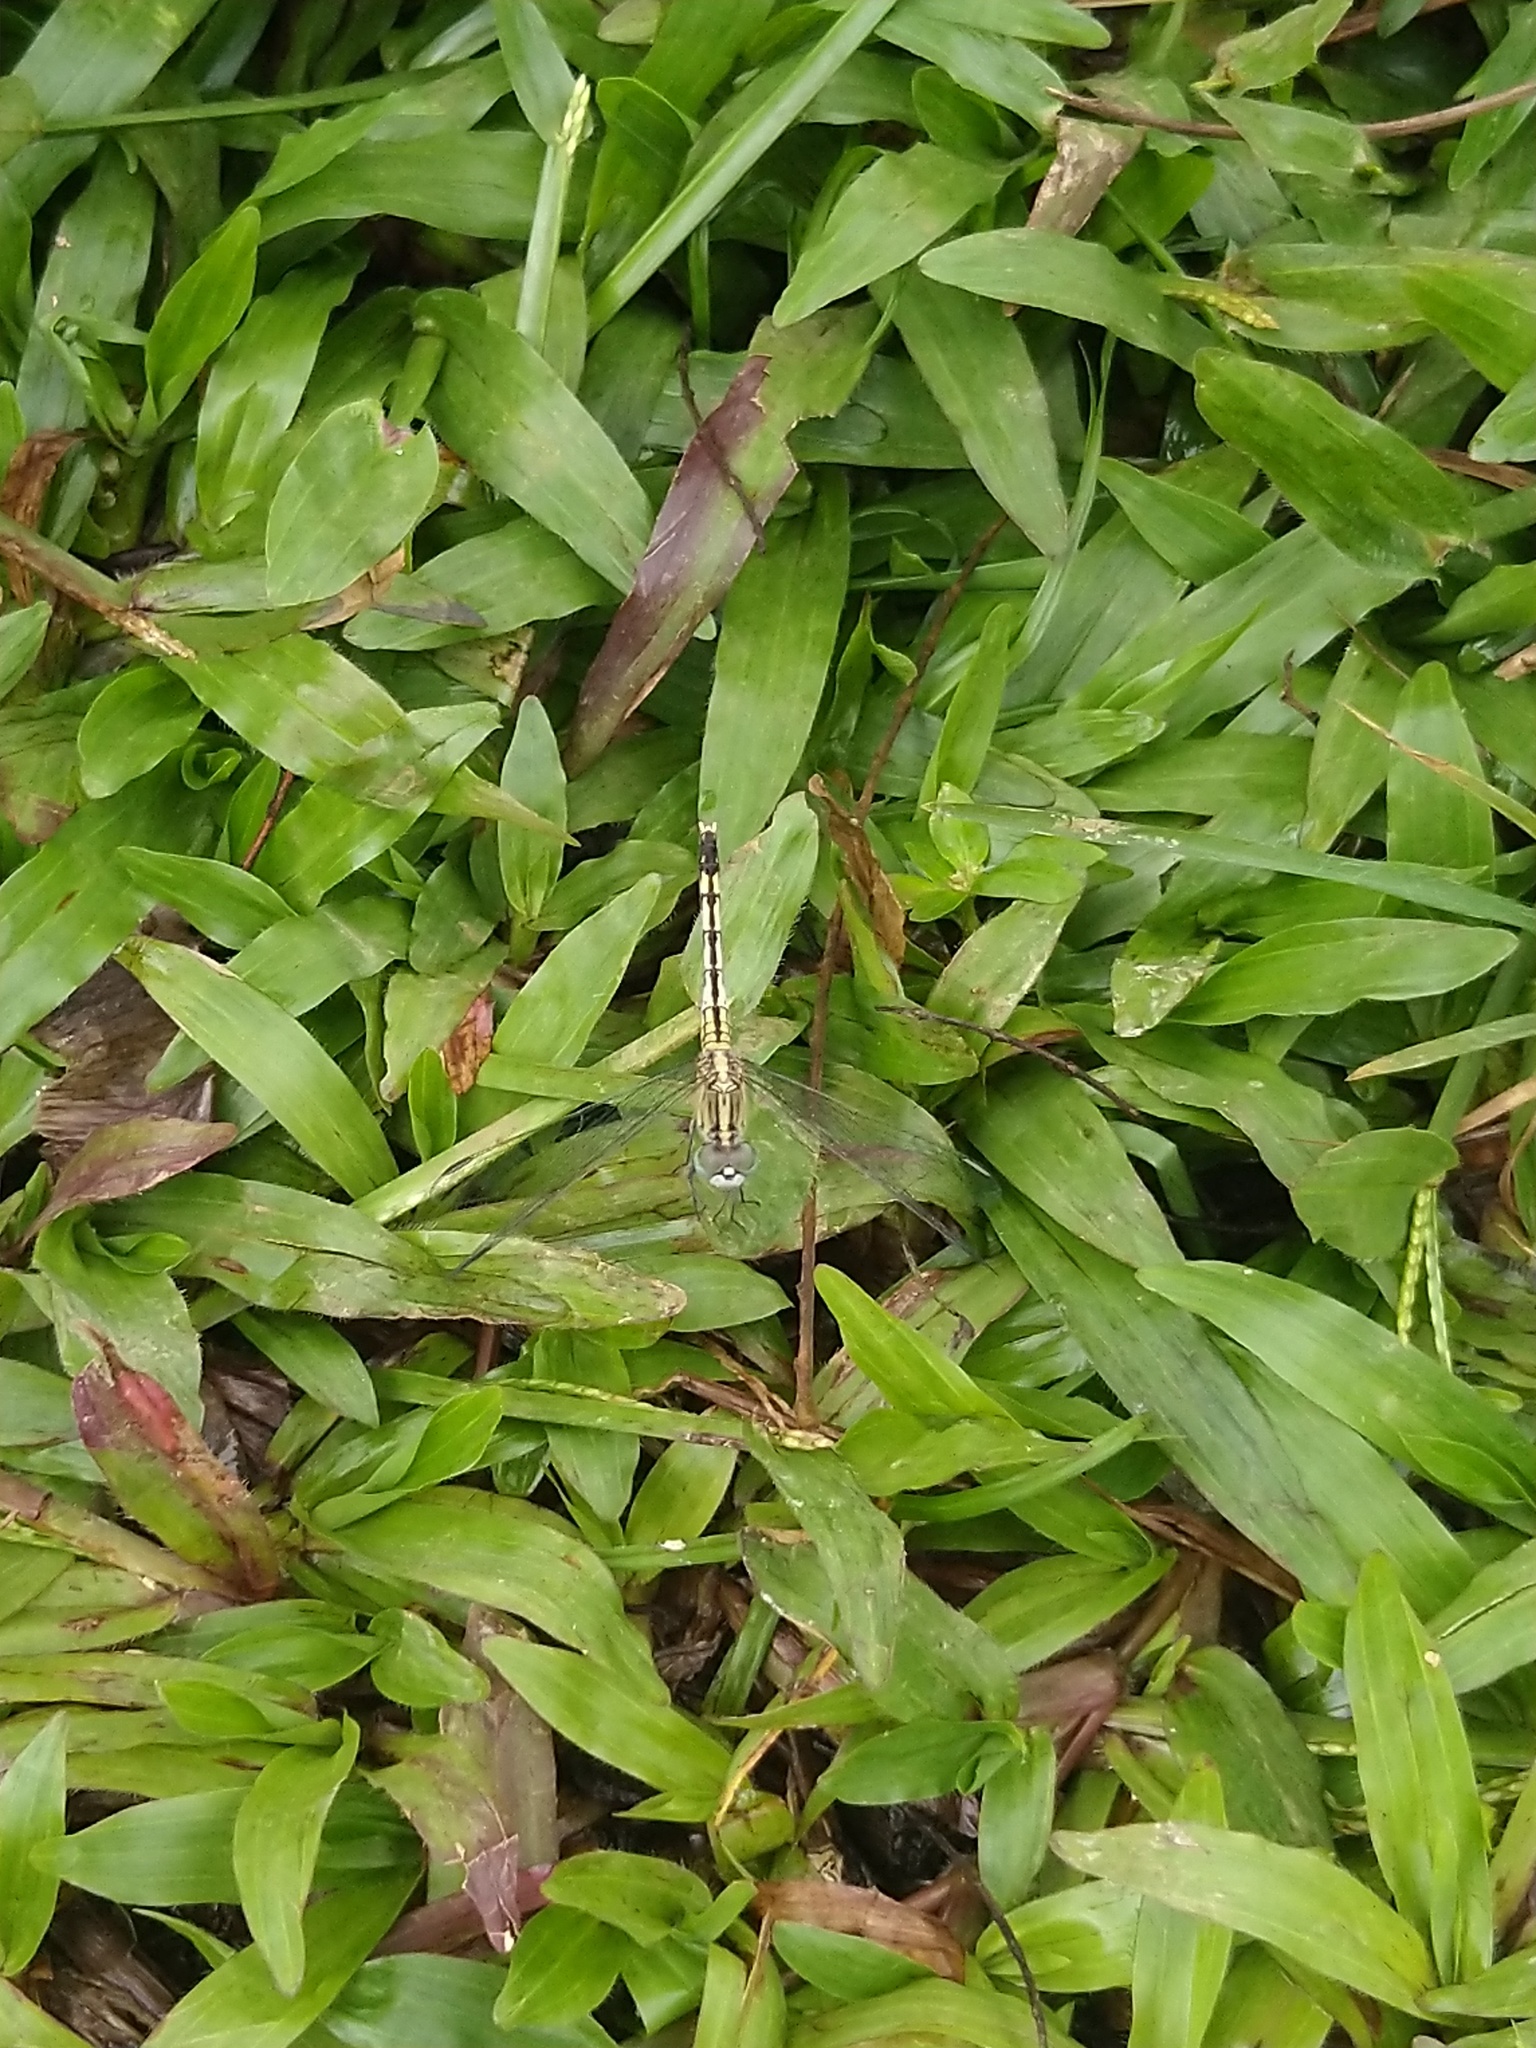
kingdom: Animalia
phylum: Arthropoda
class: Insecta
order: Odonata
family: Libellulidae
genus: Diplacodes
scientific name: Diplacodes trivialis
